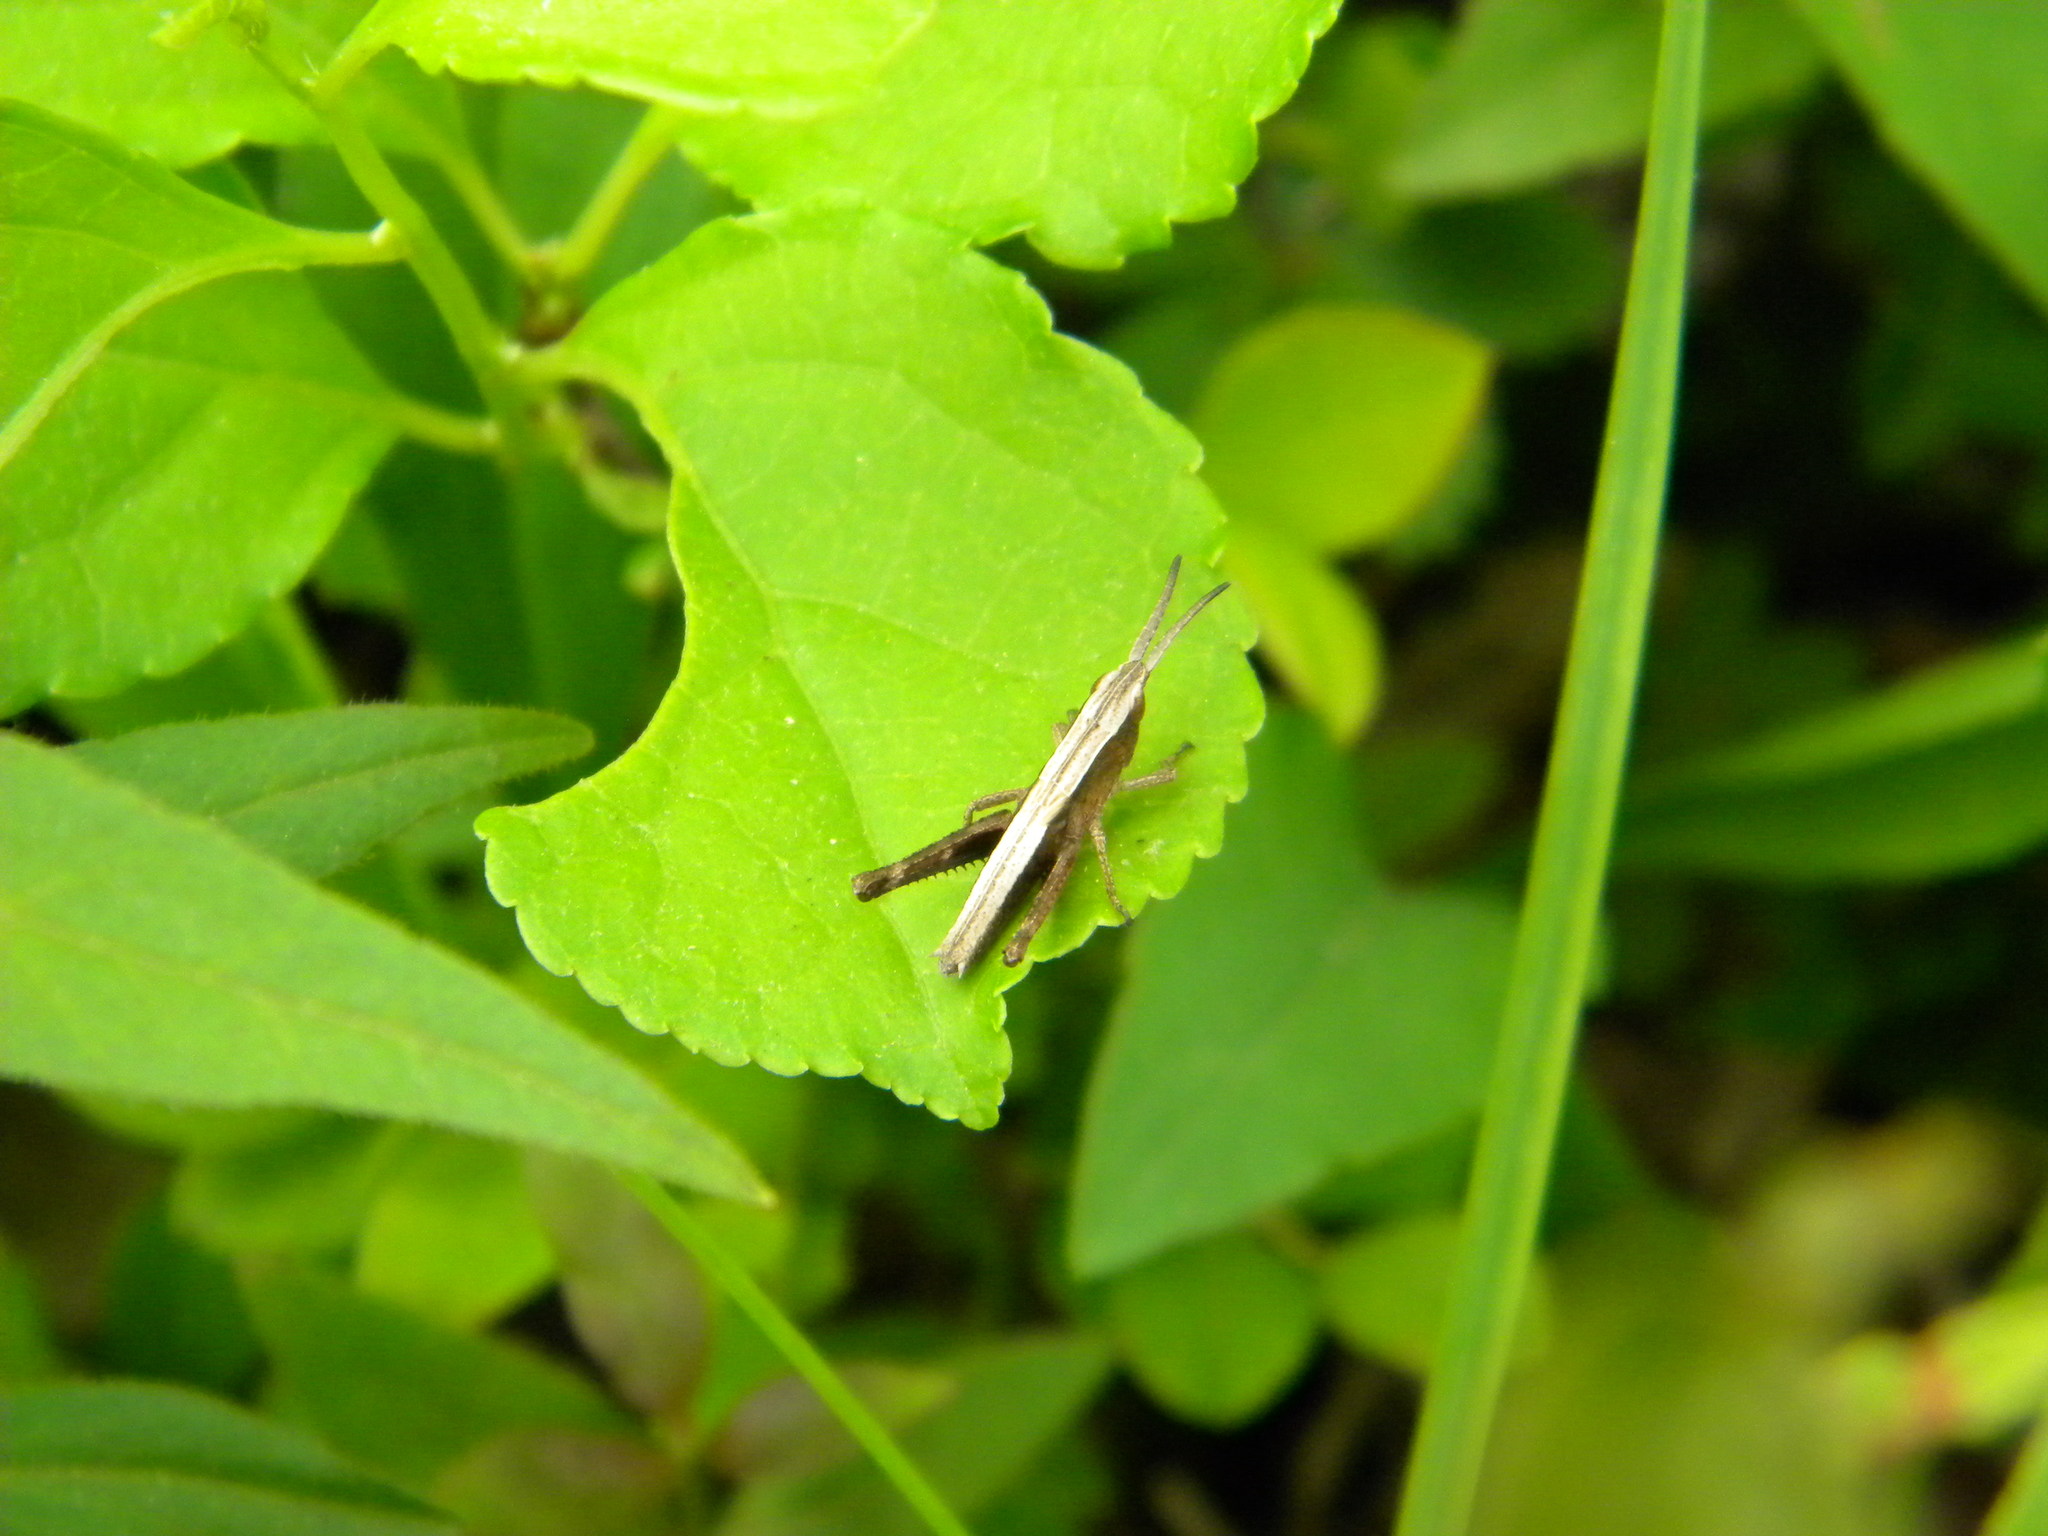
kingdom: Animalia
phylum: Arthropoda
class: Insecta
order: Orthoptera
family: Acrididae
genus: Chloealtis
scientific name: Chloealtis conspersa
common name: Sprinkled broad-winged grasshopper
